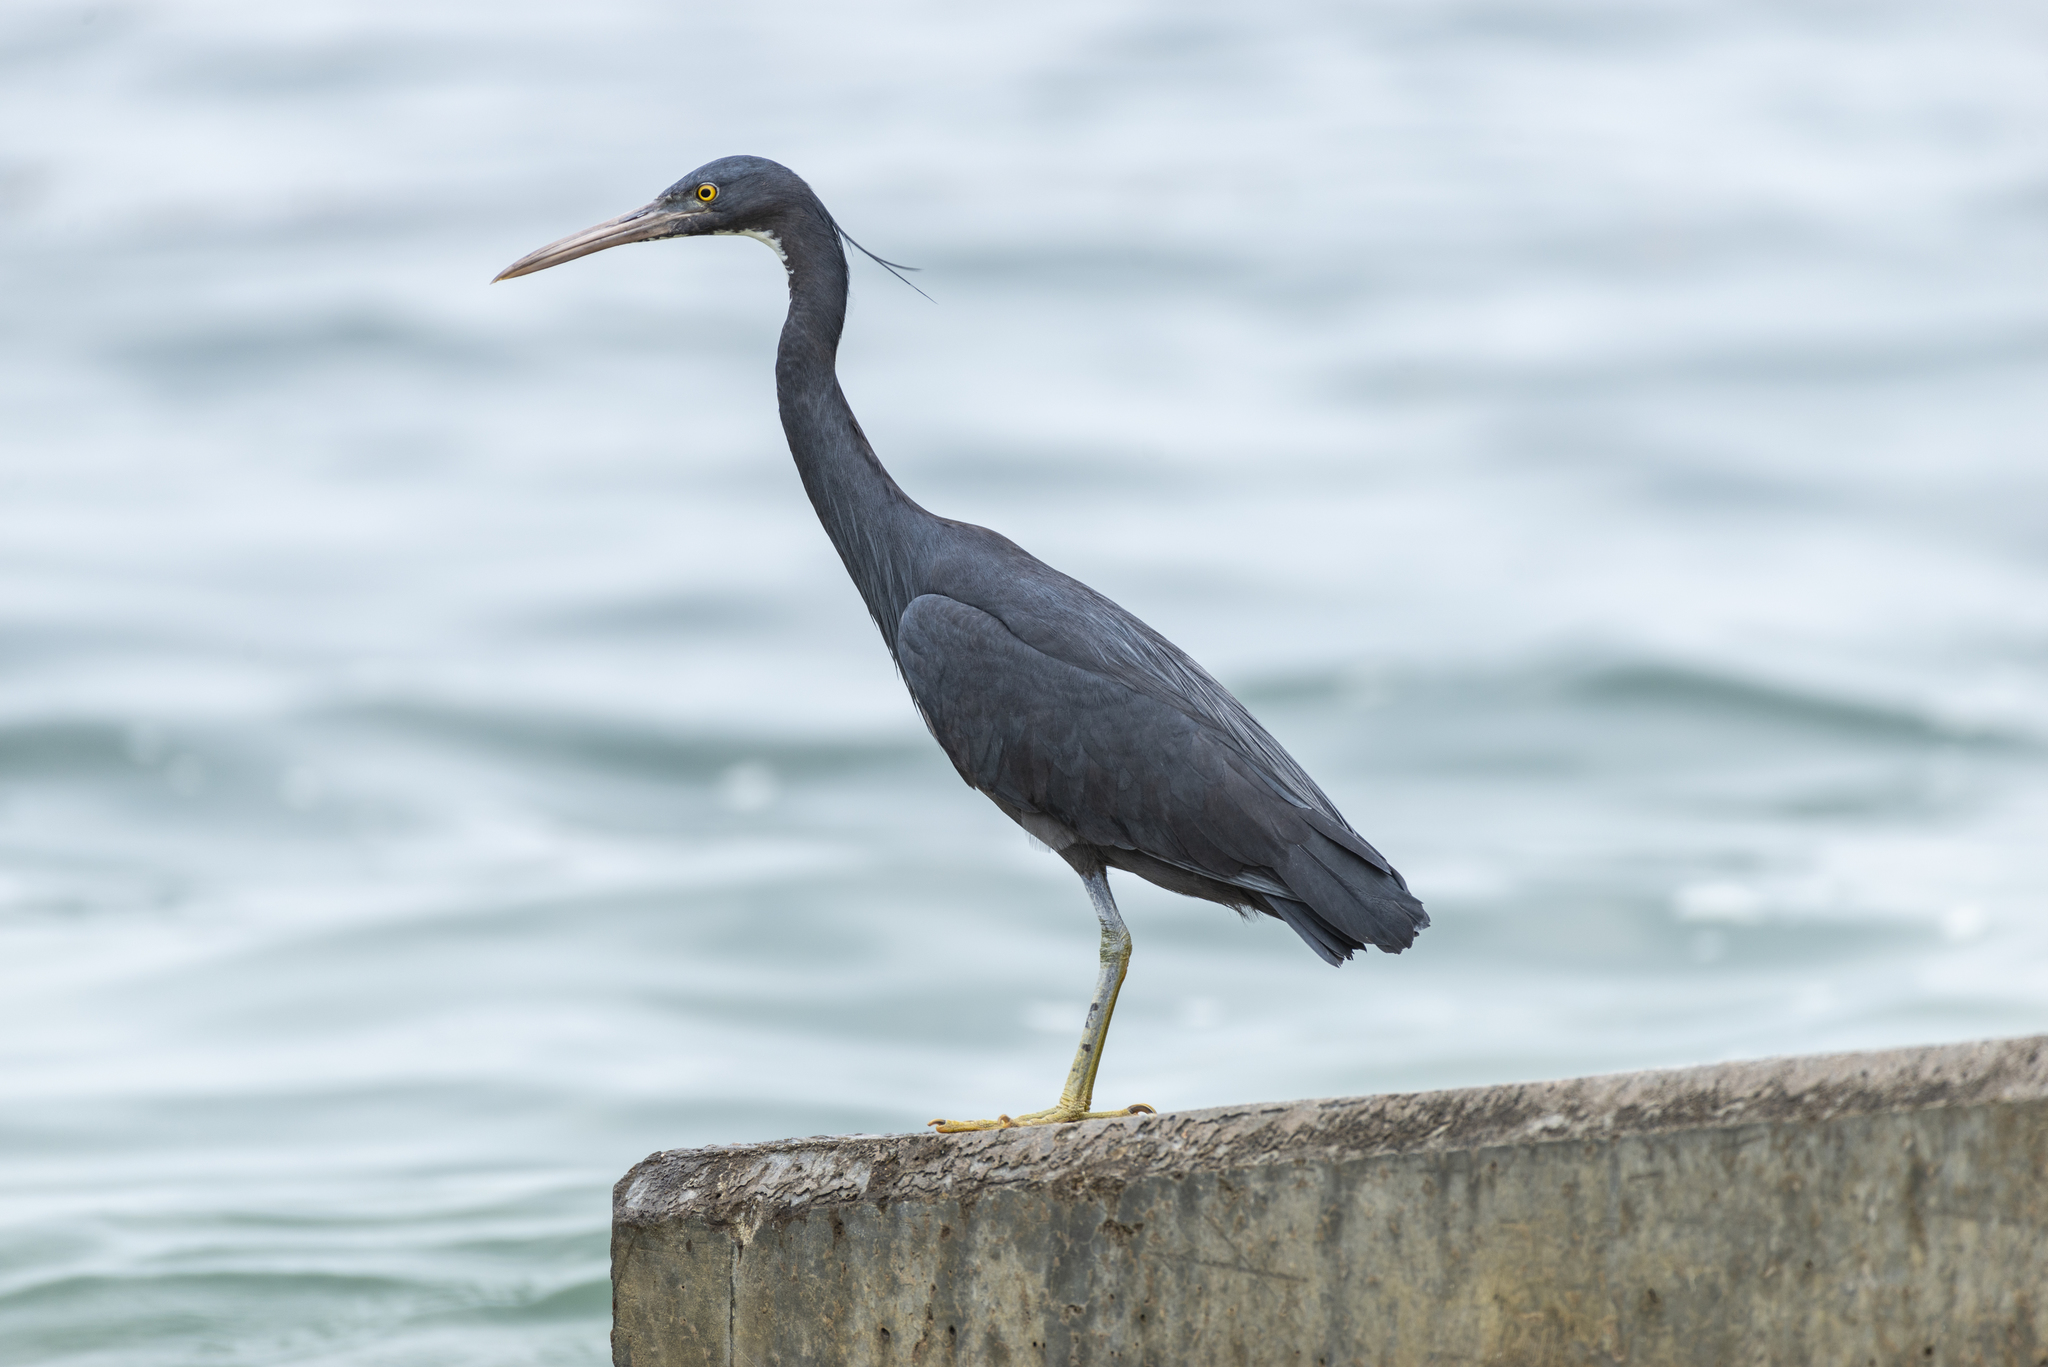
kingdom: Animalia
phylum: Chordata
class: Aves
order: Pelecaniformes
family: Ardeidae
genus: Egretta
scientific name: Egretta sacra
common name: Pacific reef heron
